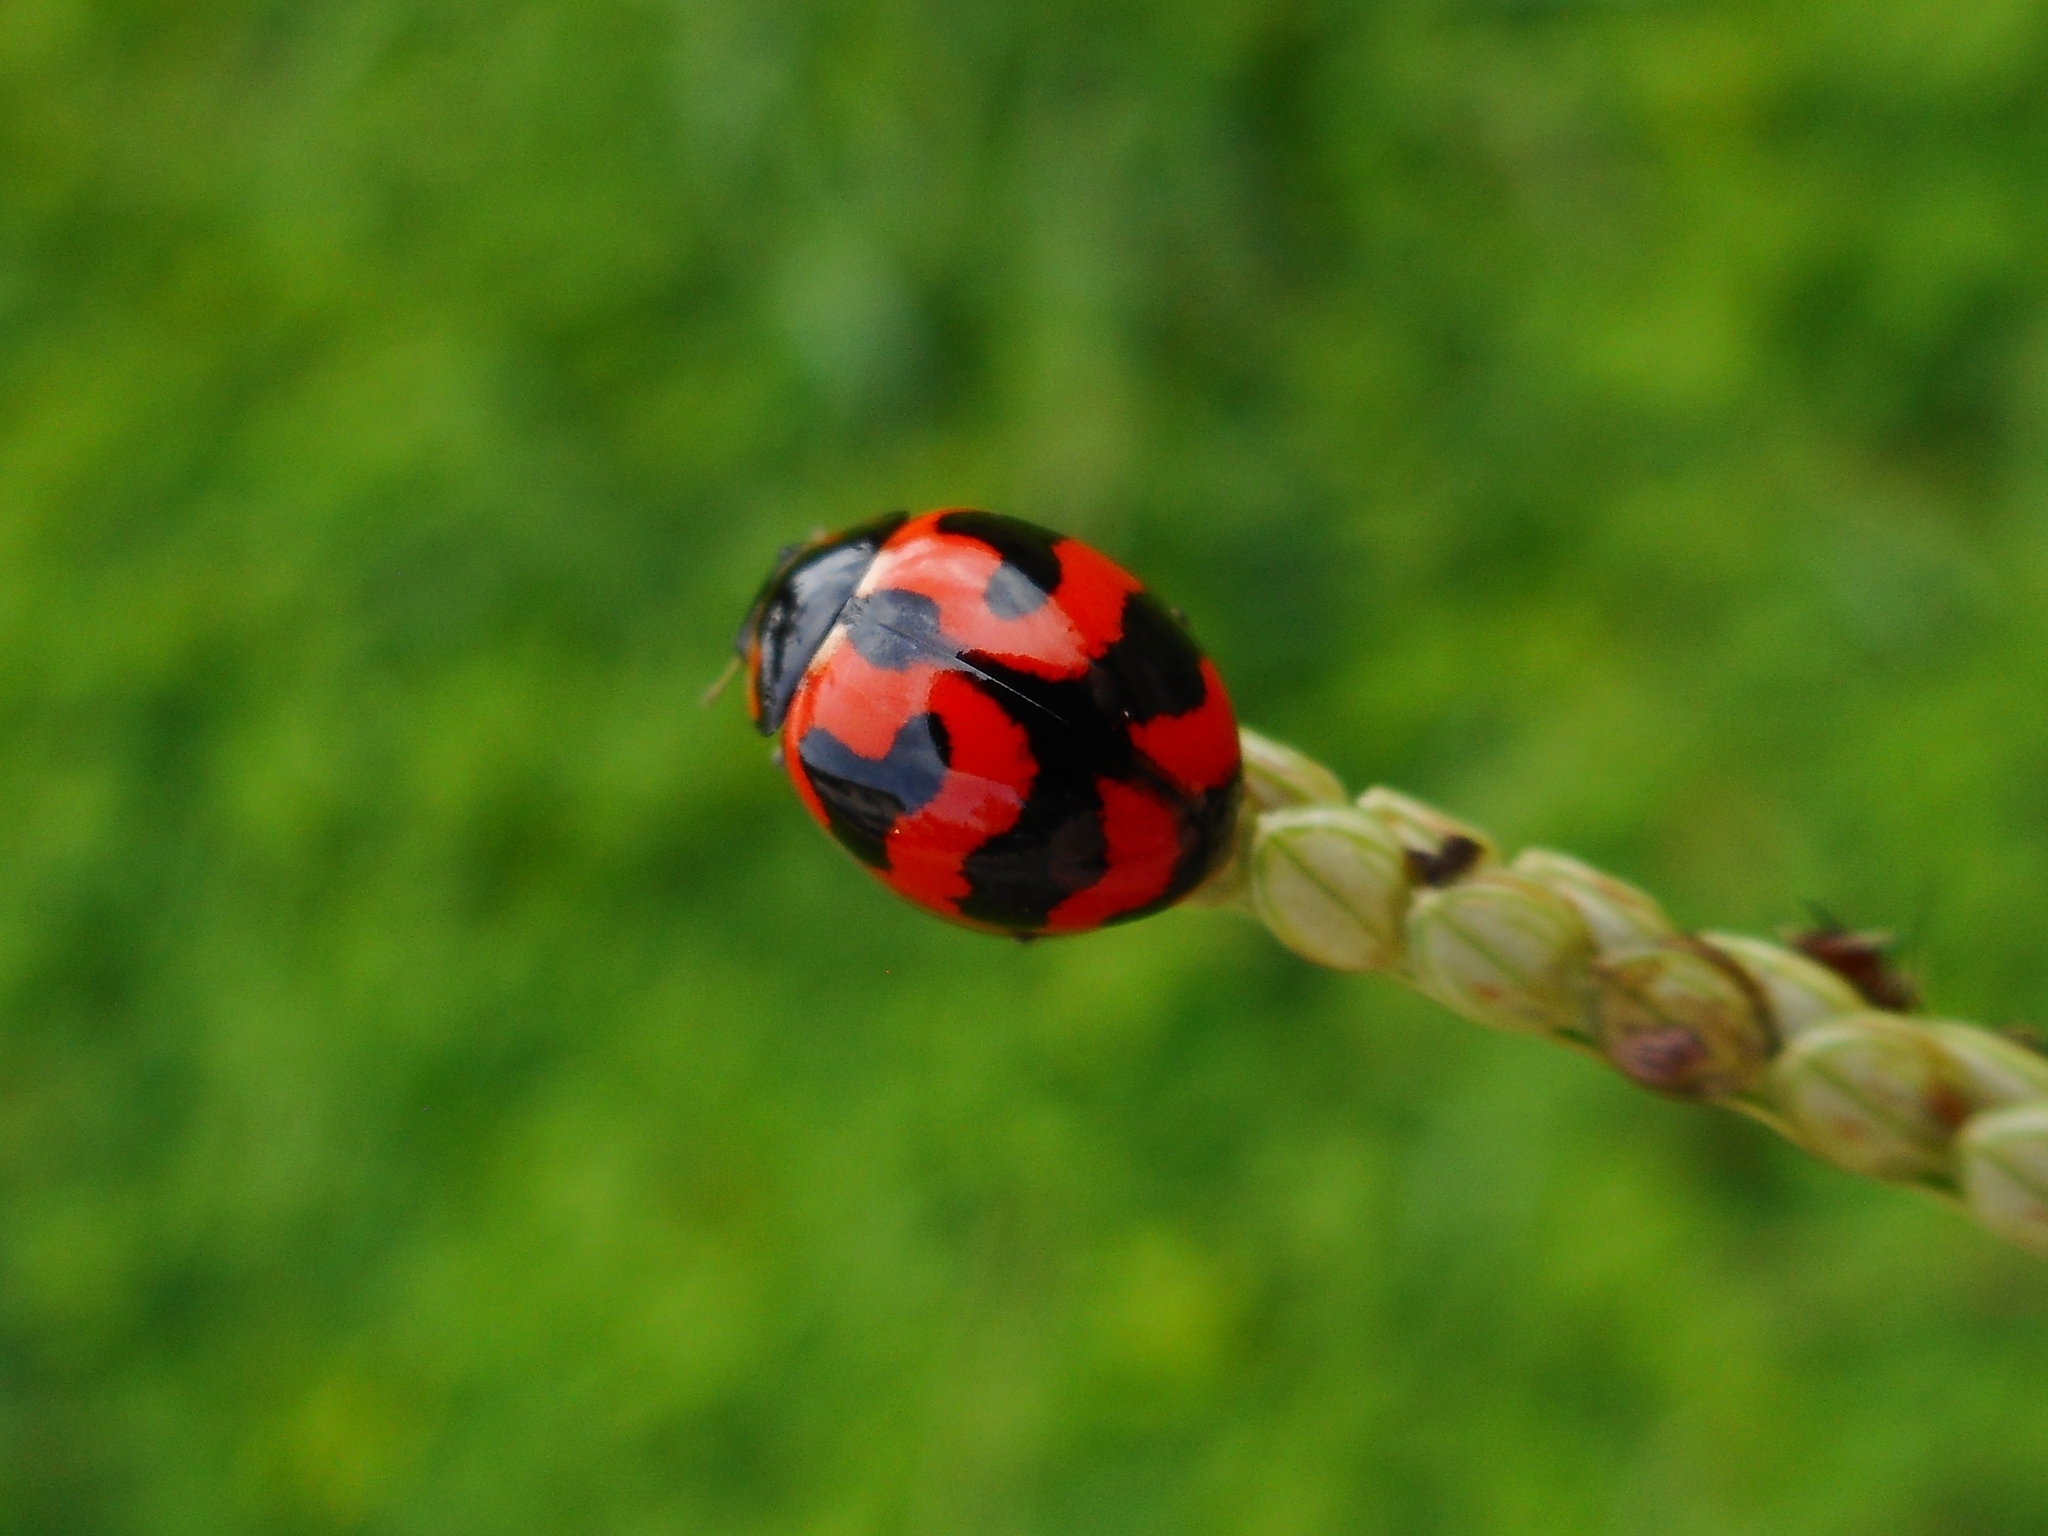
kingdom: Animalia
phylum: Arthropoda
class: Insecta
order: Coleoptera
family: Coccinellidae
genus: Coccinella
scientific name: Coccinella transversalis
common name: Transverse lady beetle
